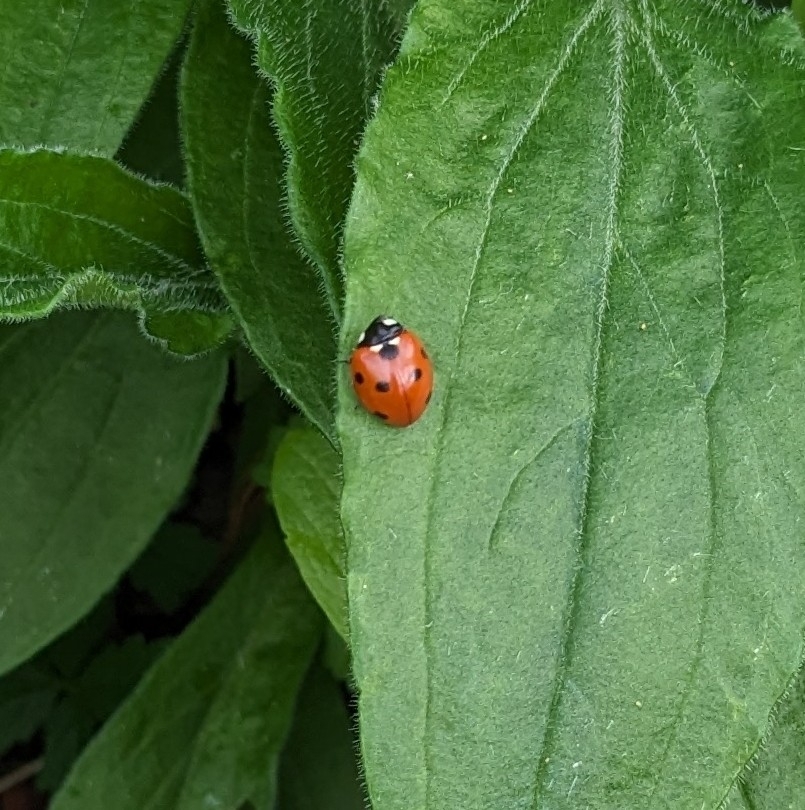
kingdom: Animalia
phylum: Arthropoda
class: Insecta
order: Coleoptera
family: Coccinellidae
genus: Coccinella
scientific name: Coccinella septempunctata
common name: Sevenspotted lady beetle
